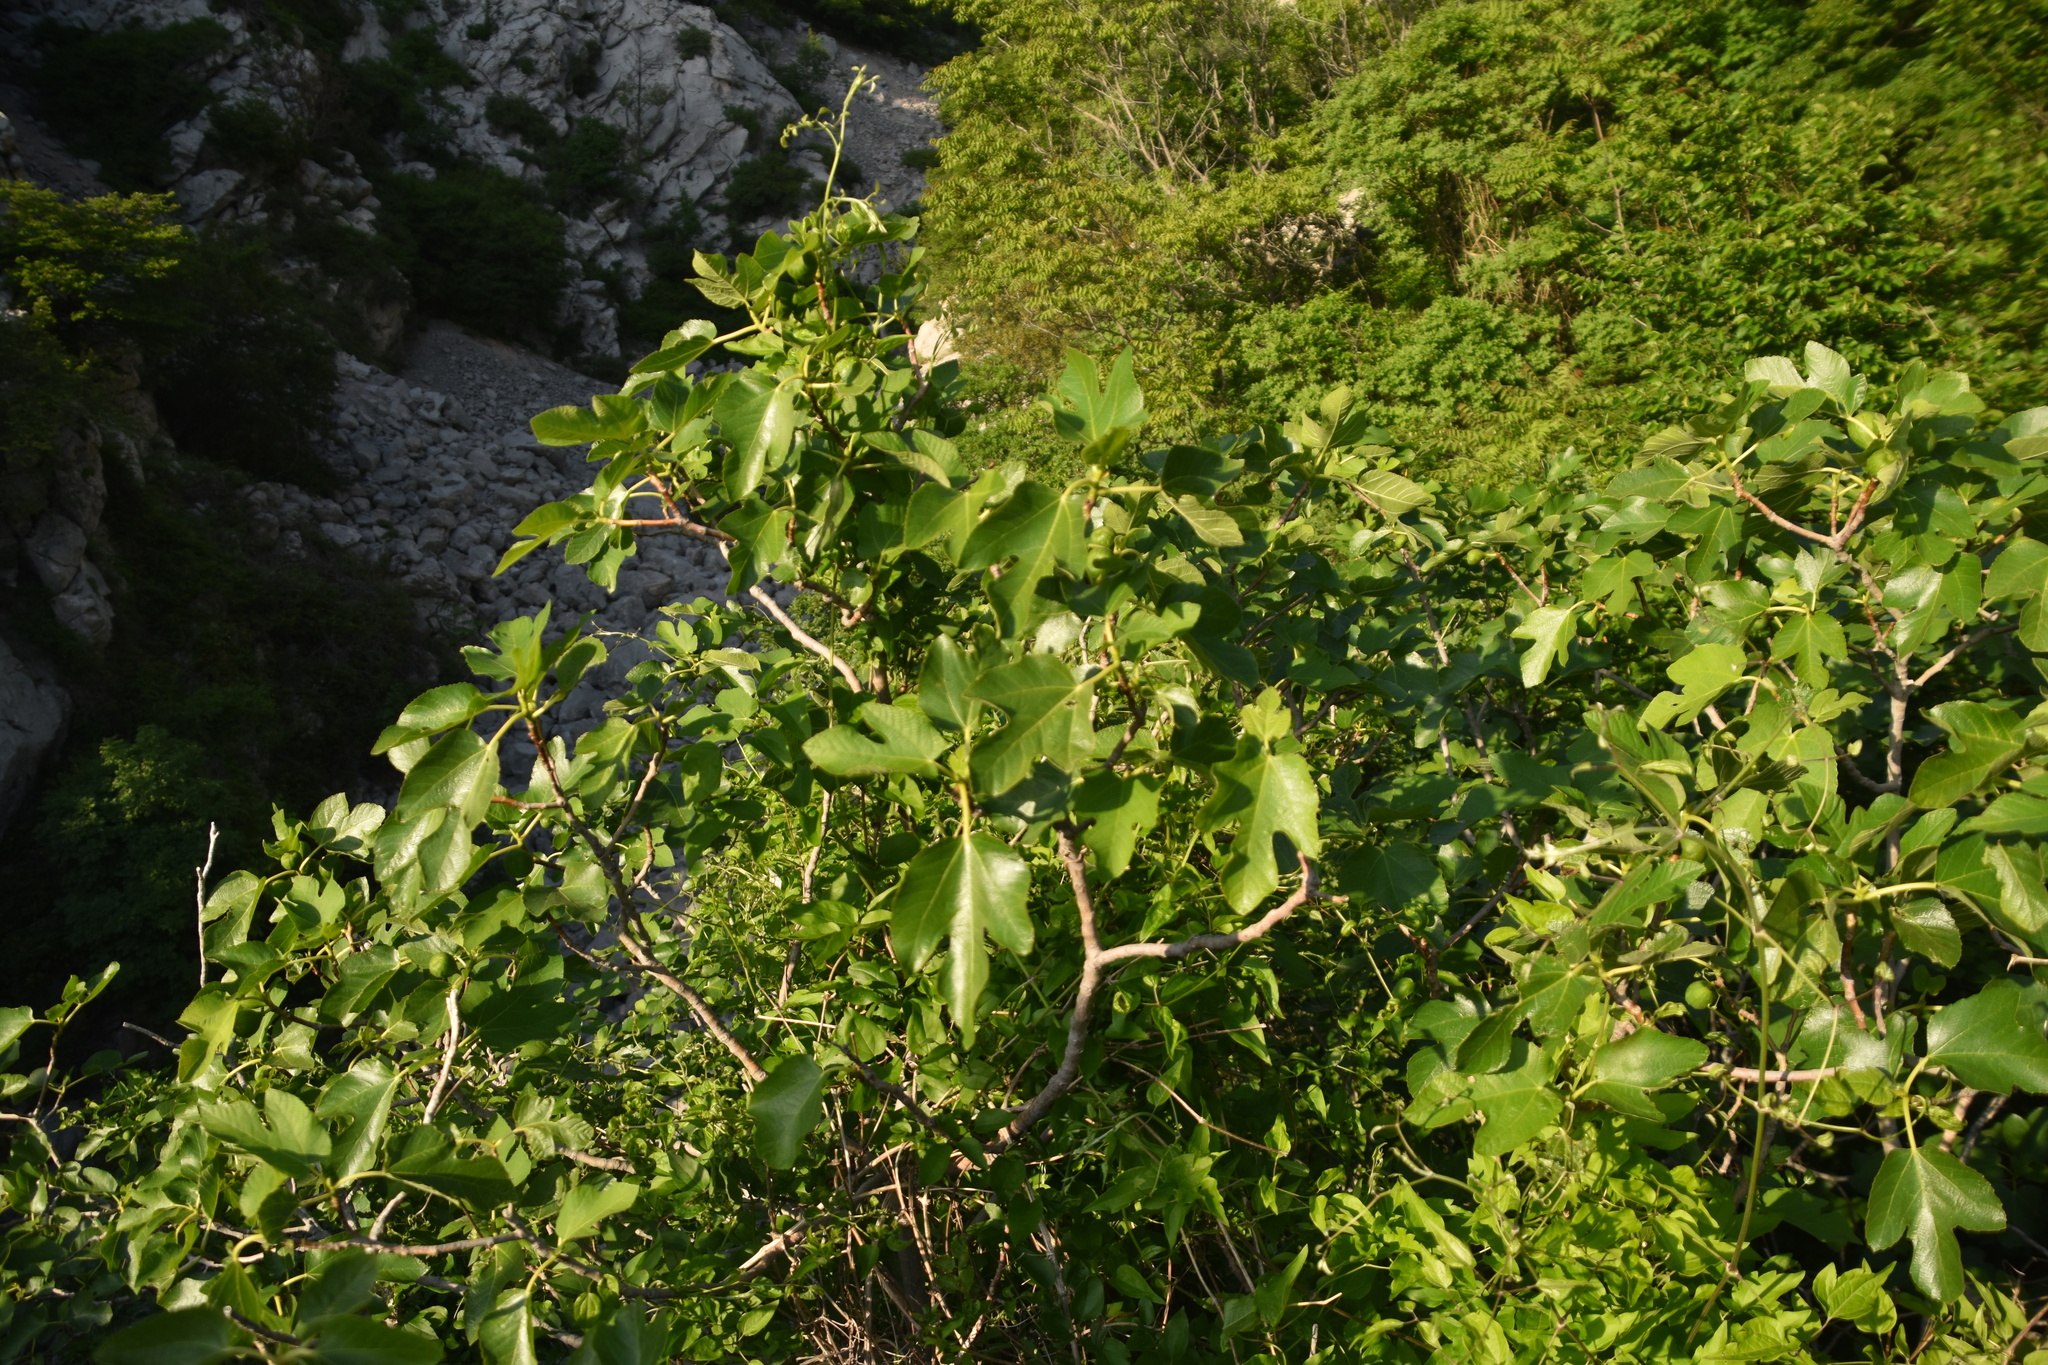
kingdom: Plantae
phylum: Tracheophyta
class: Magnoliopsida
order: Rosales
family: Moraceae
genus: Ficus
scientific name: Ficus carica
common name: Fig
